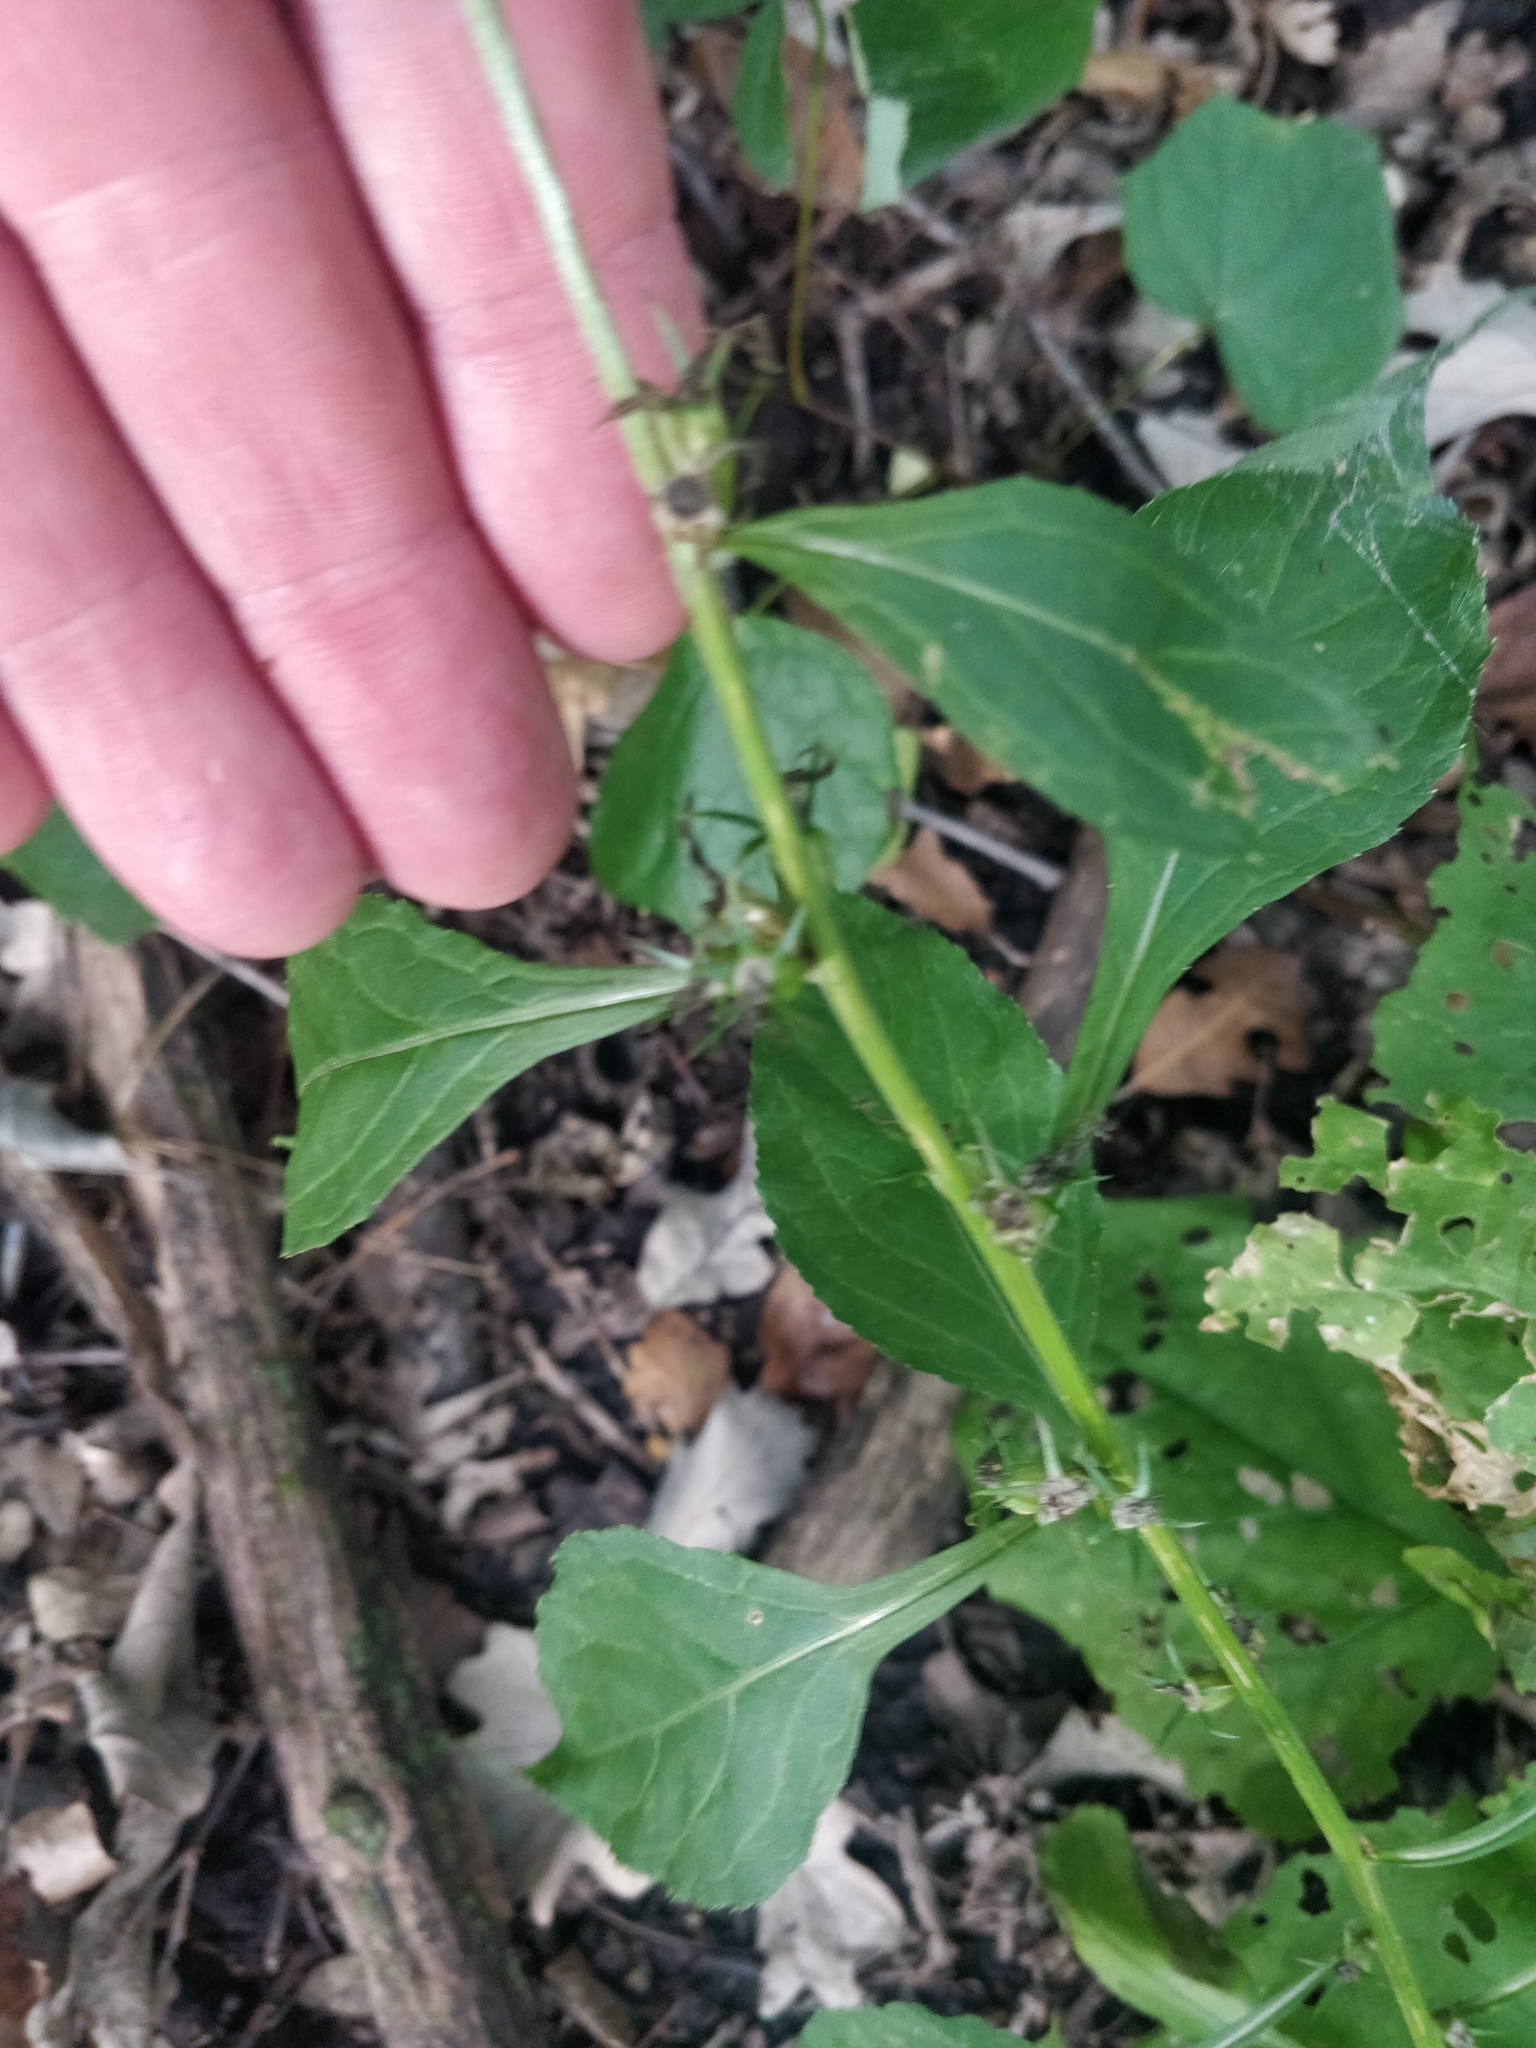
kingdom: Plantae
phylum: Tracheophyta
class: Magnoliopsida
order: Asterales
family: Campanulaceae
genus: Campanulastrum
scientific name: Campanulastrum americanum
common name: American bellflower
